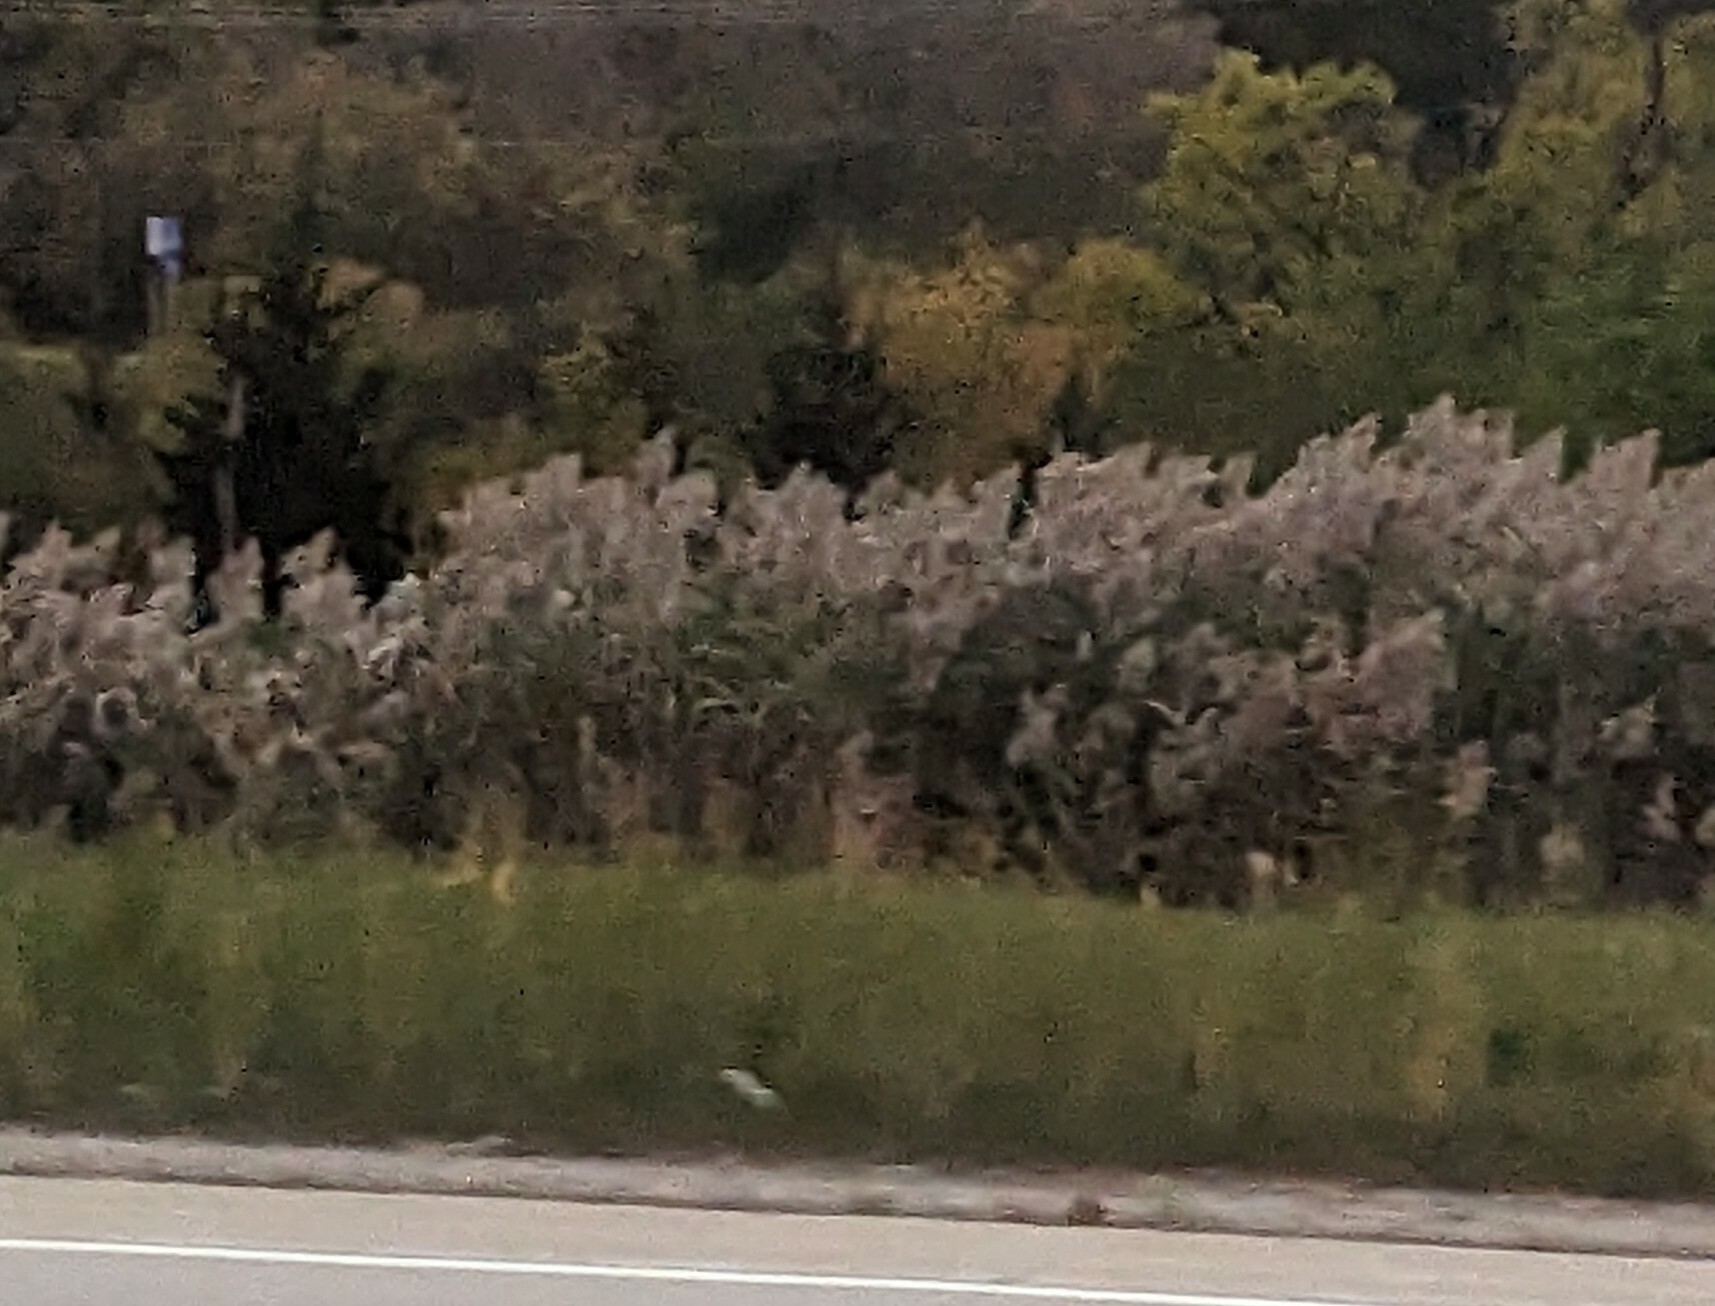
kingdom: Plantae
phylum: Tracheophyta
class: Liliopsida
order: Poales
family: Poaceae
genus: Phragmites
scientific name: Phragmites australis
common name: Common reed
